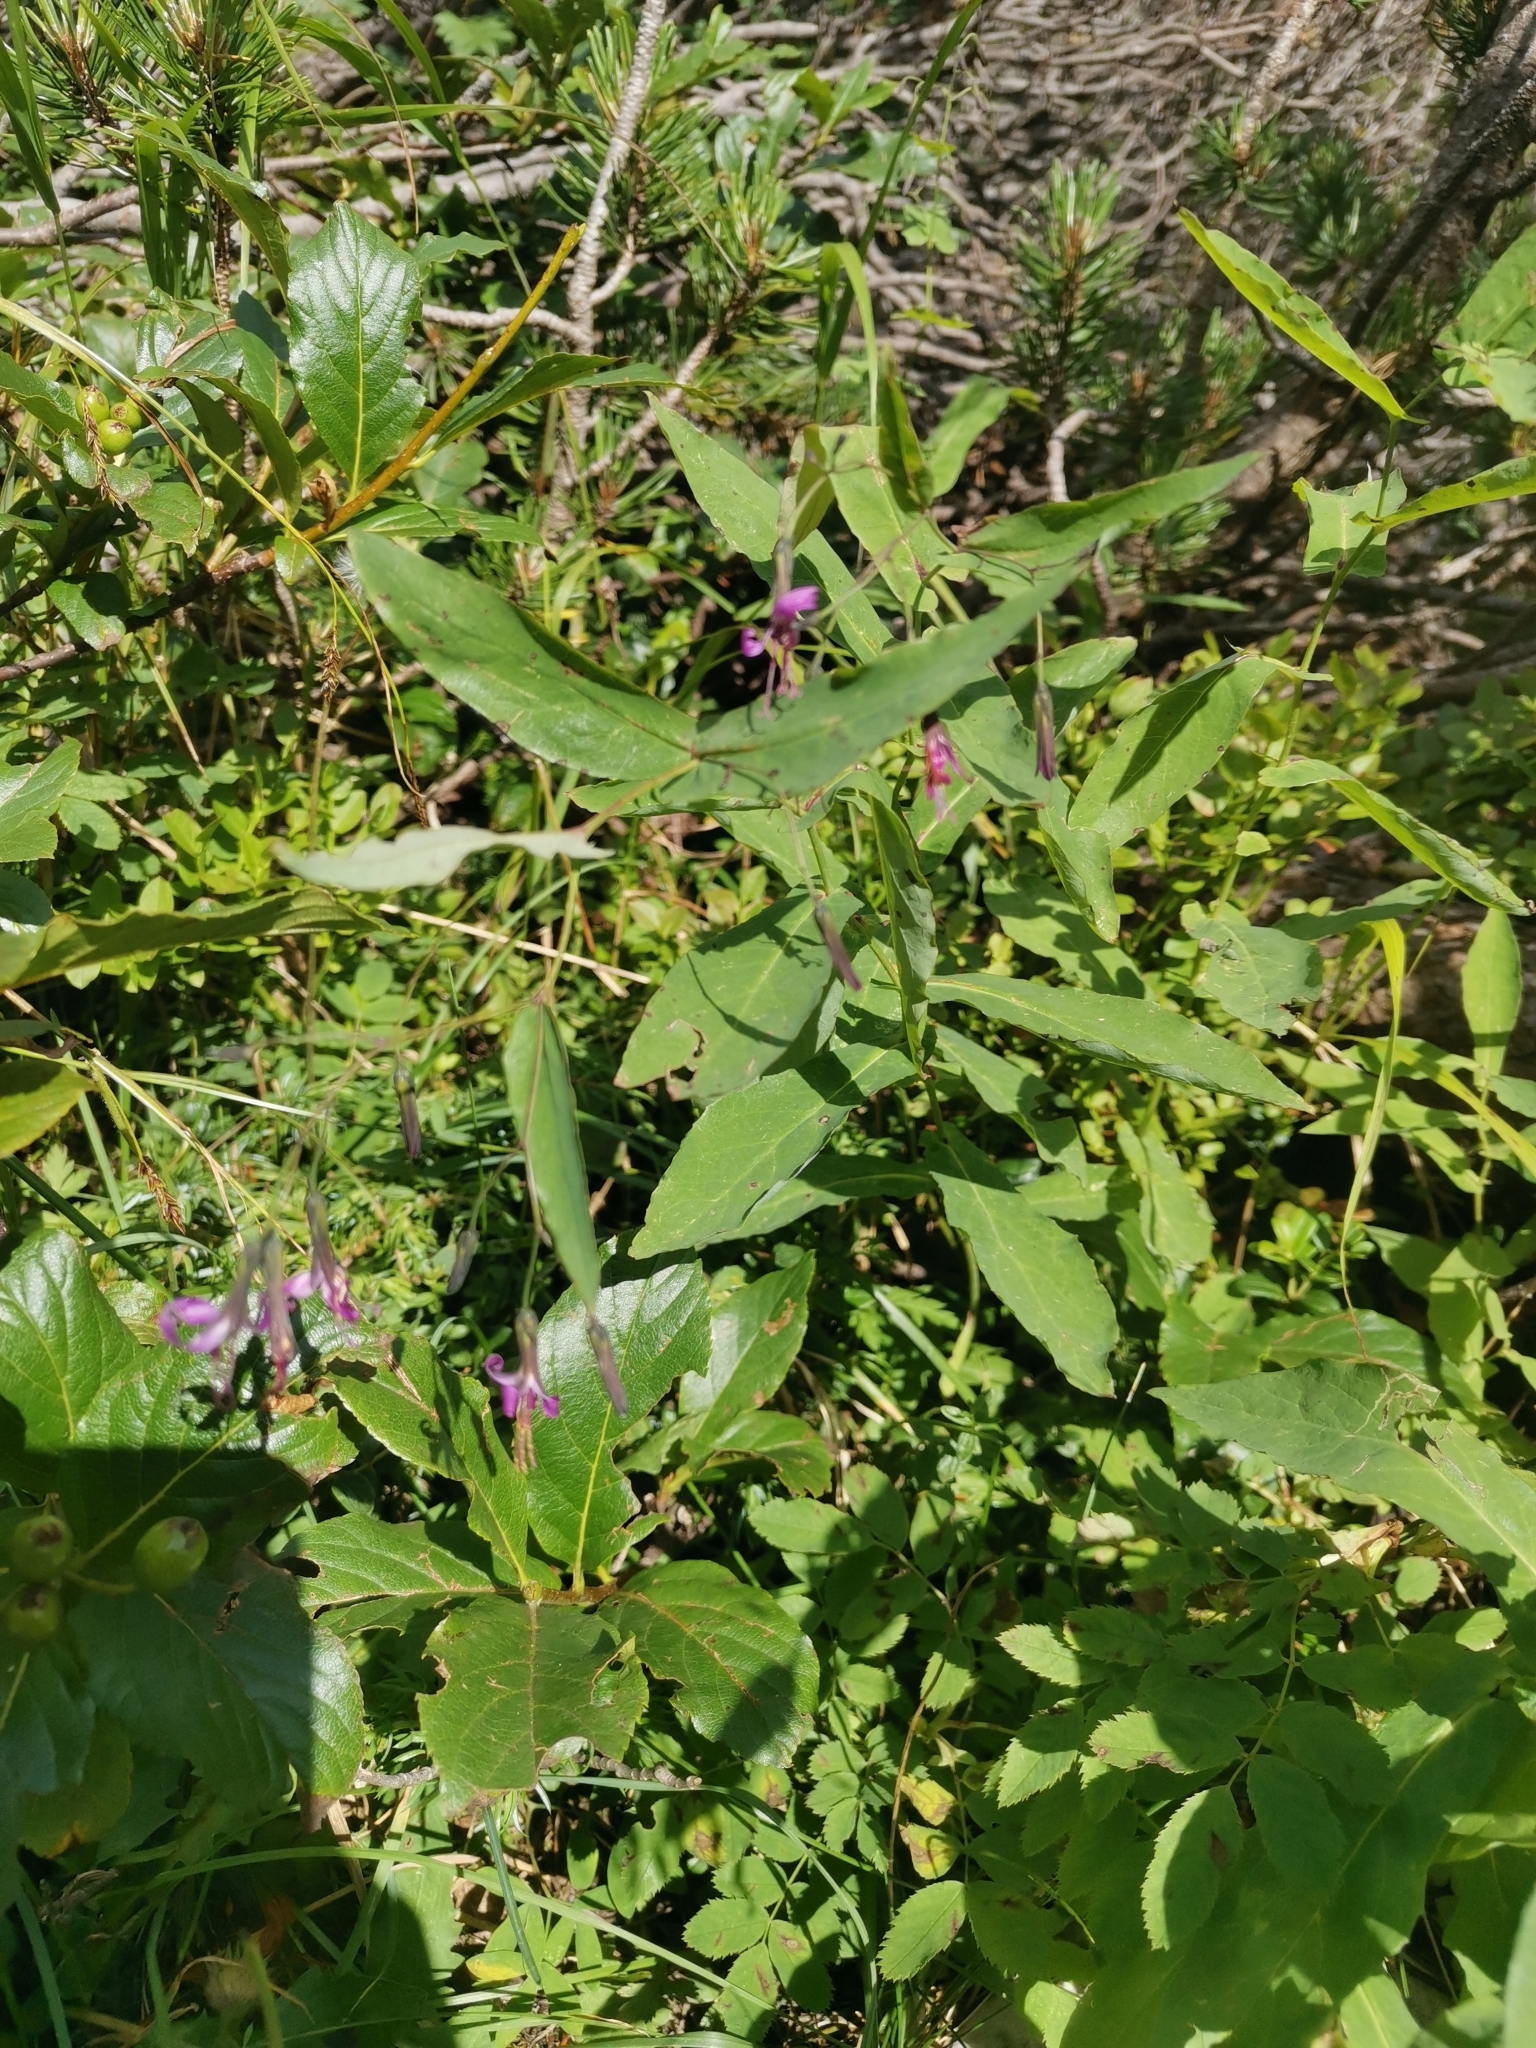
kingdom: Plantae
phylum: Tracheophyta
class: Magnoliopsida
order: Asterales
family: Asteraceae
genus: Prenanthes
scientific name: Prenanthes purpurea
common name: Purple lettuce
